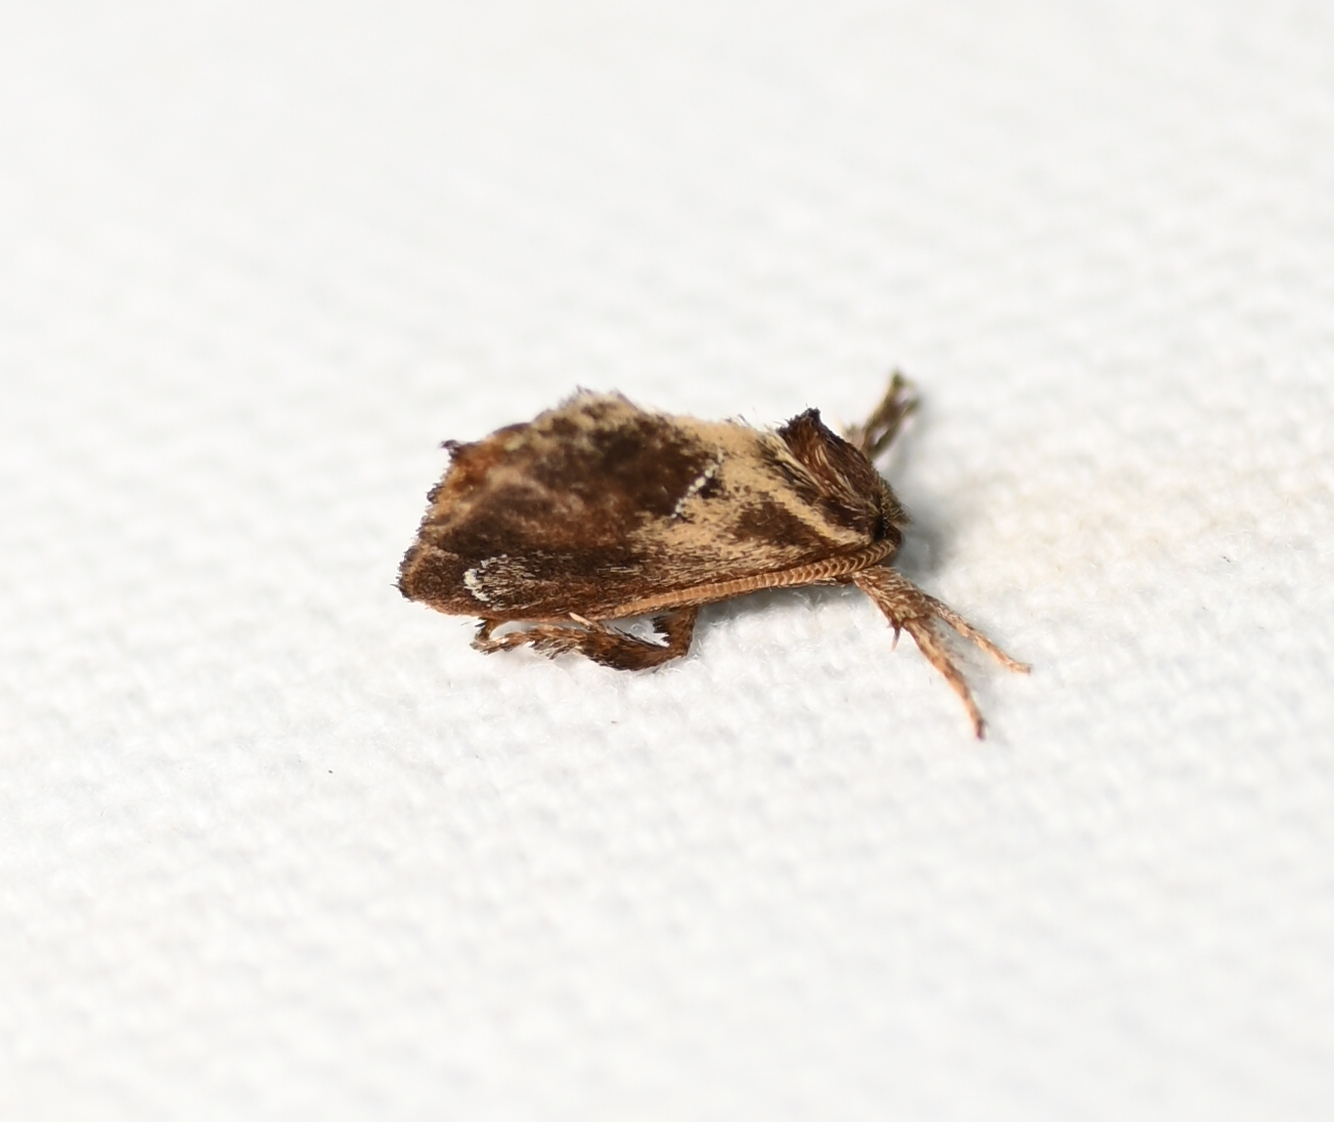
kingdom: Animalia
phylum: Arthropoda
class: Insecta
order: Lepidoptera
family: Limacodidae
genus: Adoneta
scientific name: Adoneta spinuloides
